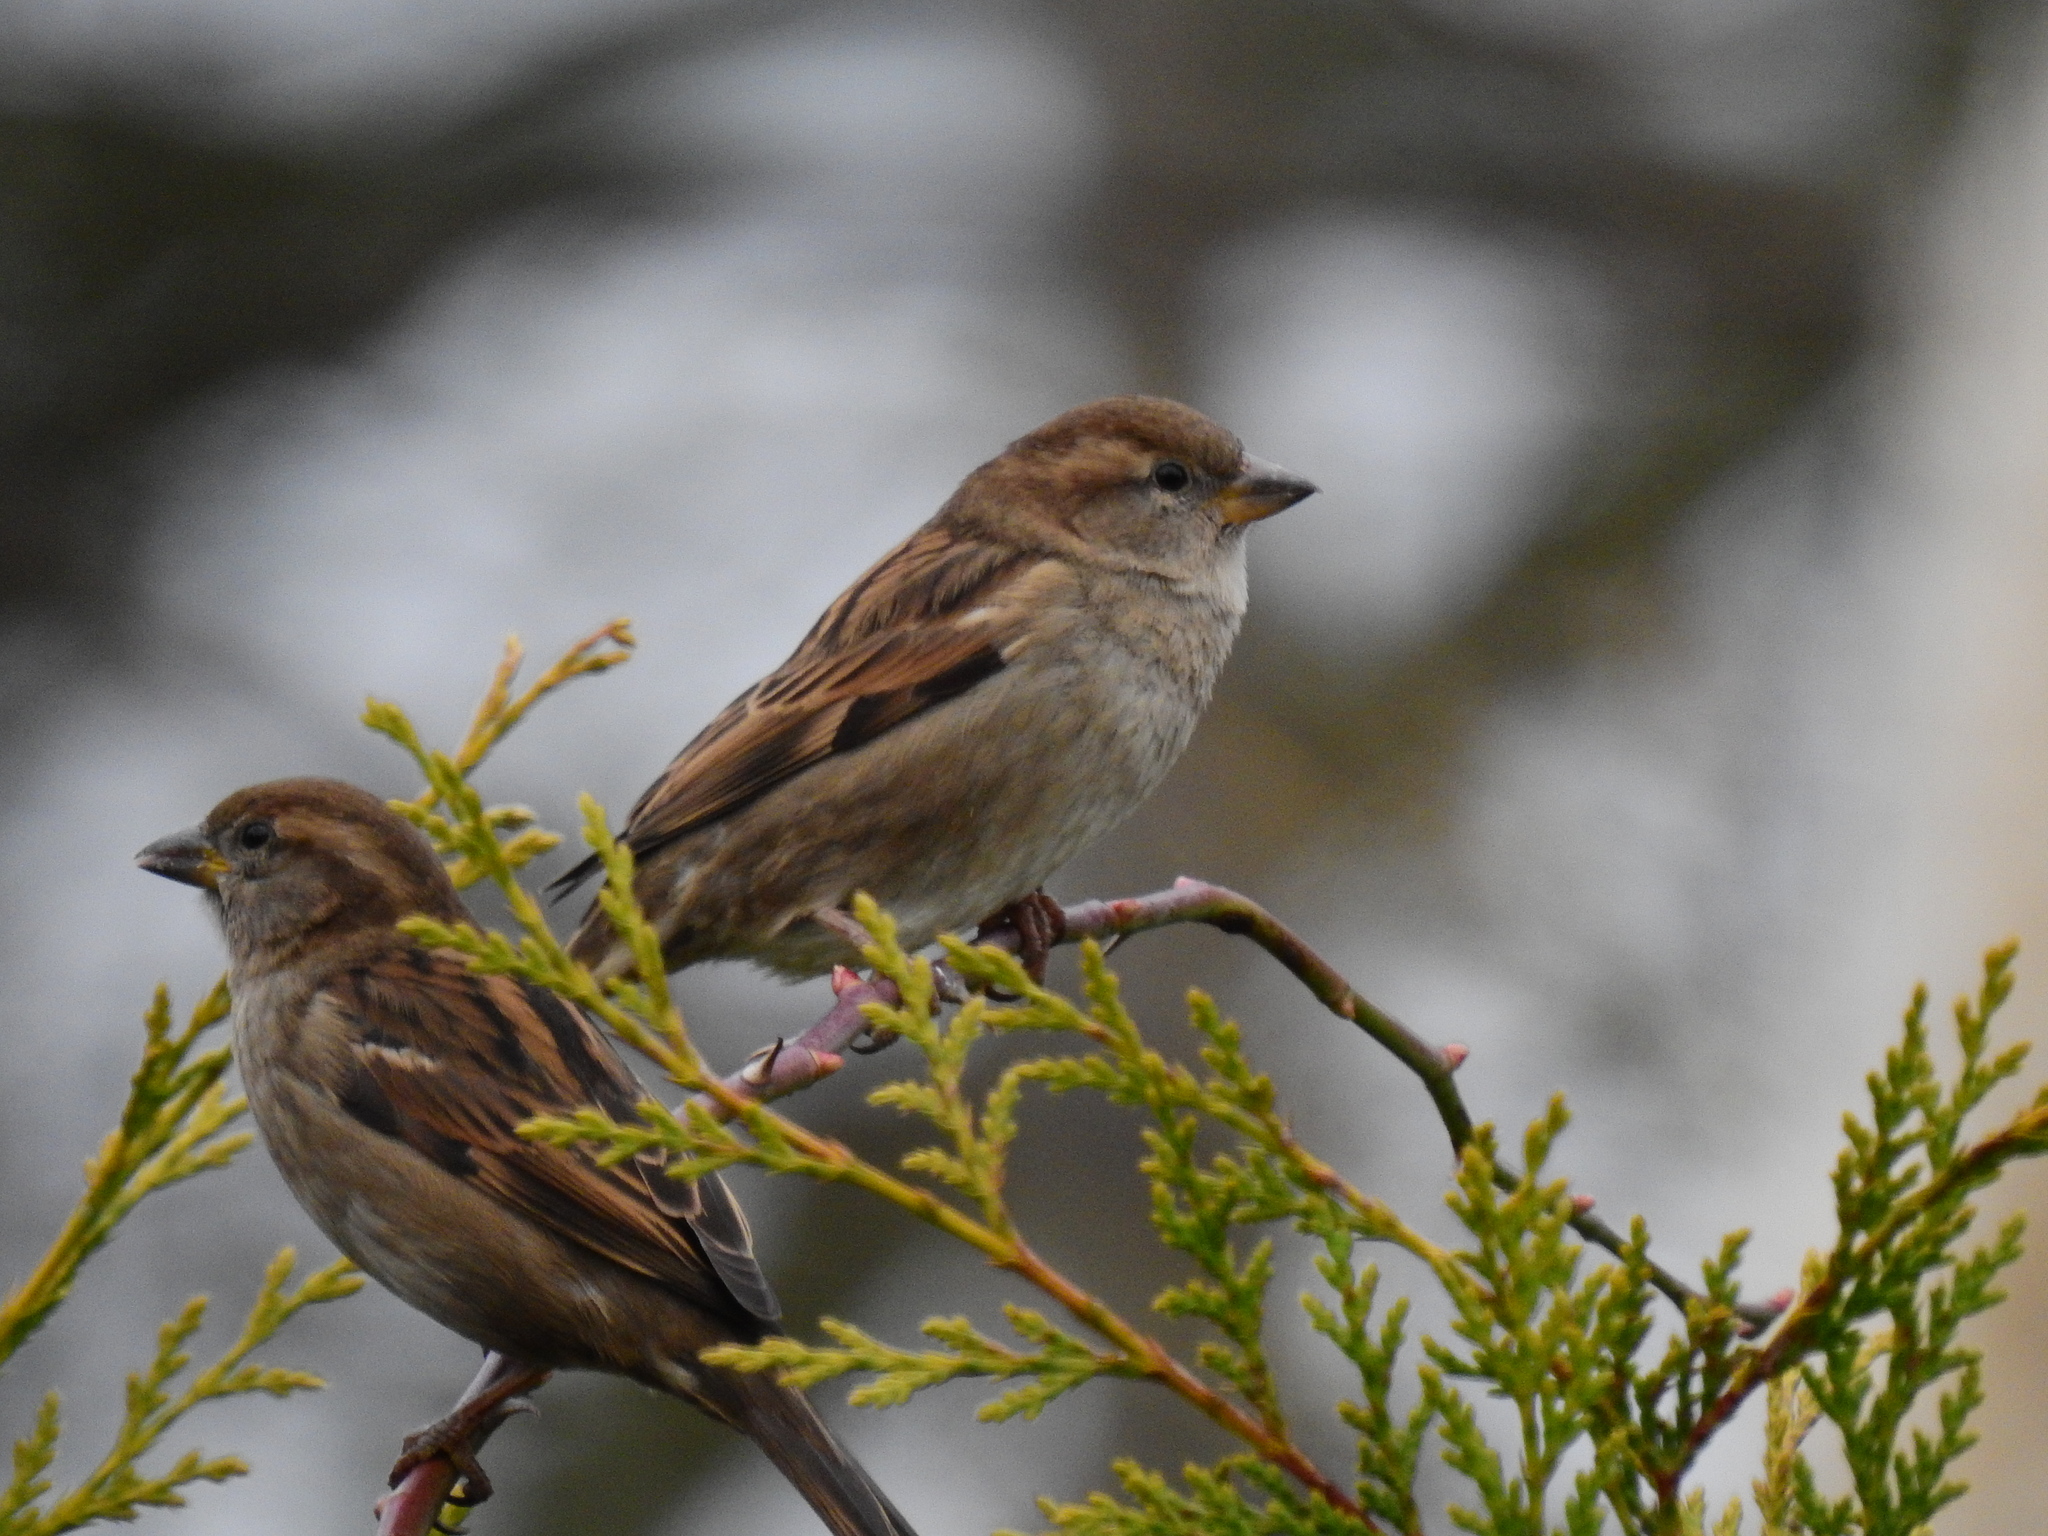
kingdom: Animalia
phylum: Chordata
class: Aves
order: Passeriformes
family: Passeridae
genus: Passer
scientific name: Passer domesticus
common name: House sparrow
